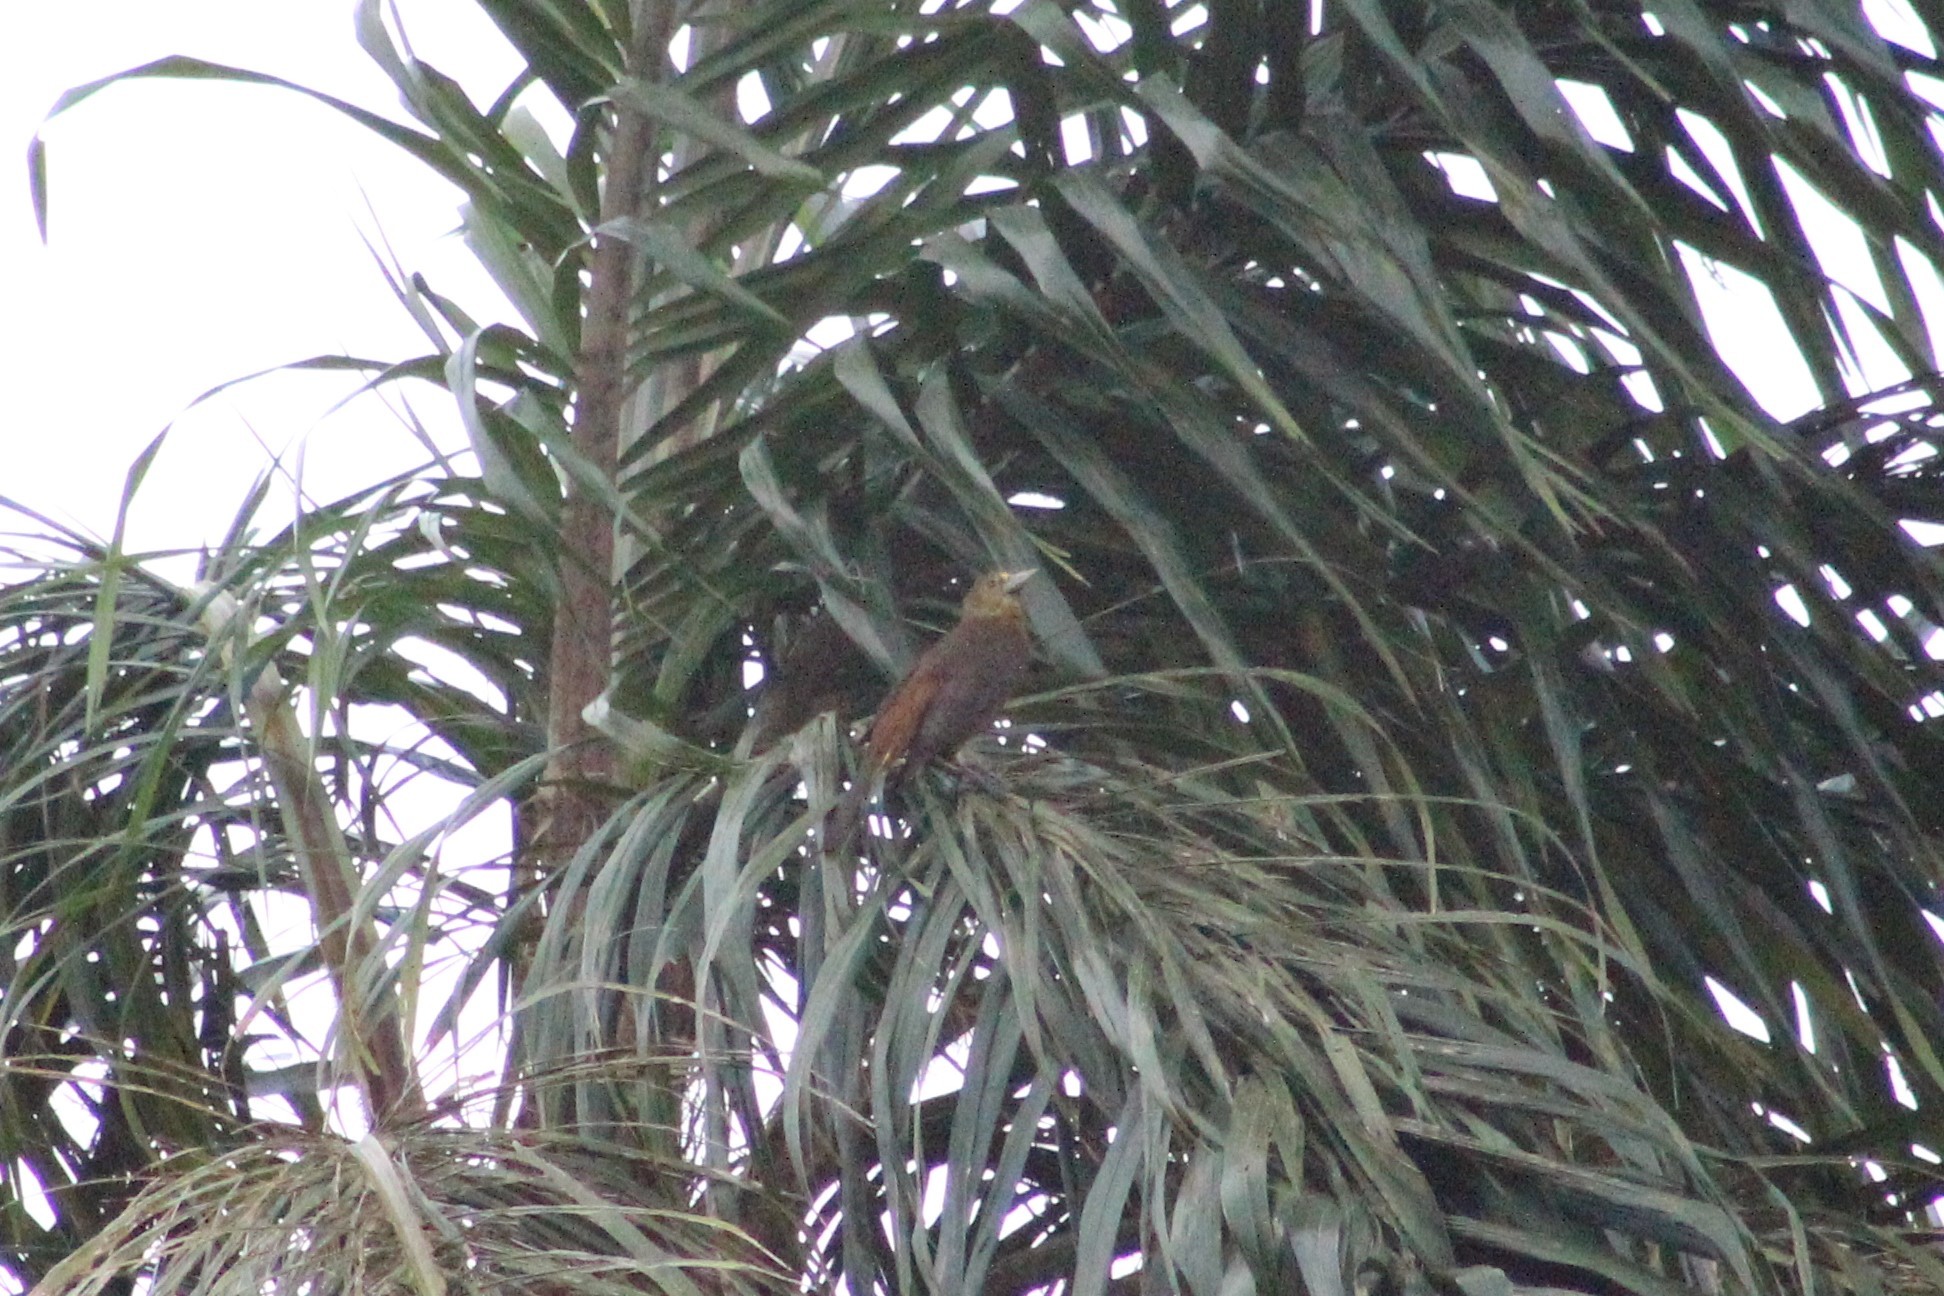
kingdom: Animalia
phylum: Chordata
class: Aves
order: Passeriformes
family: Icteridae
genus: Psarocolius
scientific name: Psarocolius angustifrons
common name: Russet-backed oropendola
